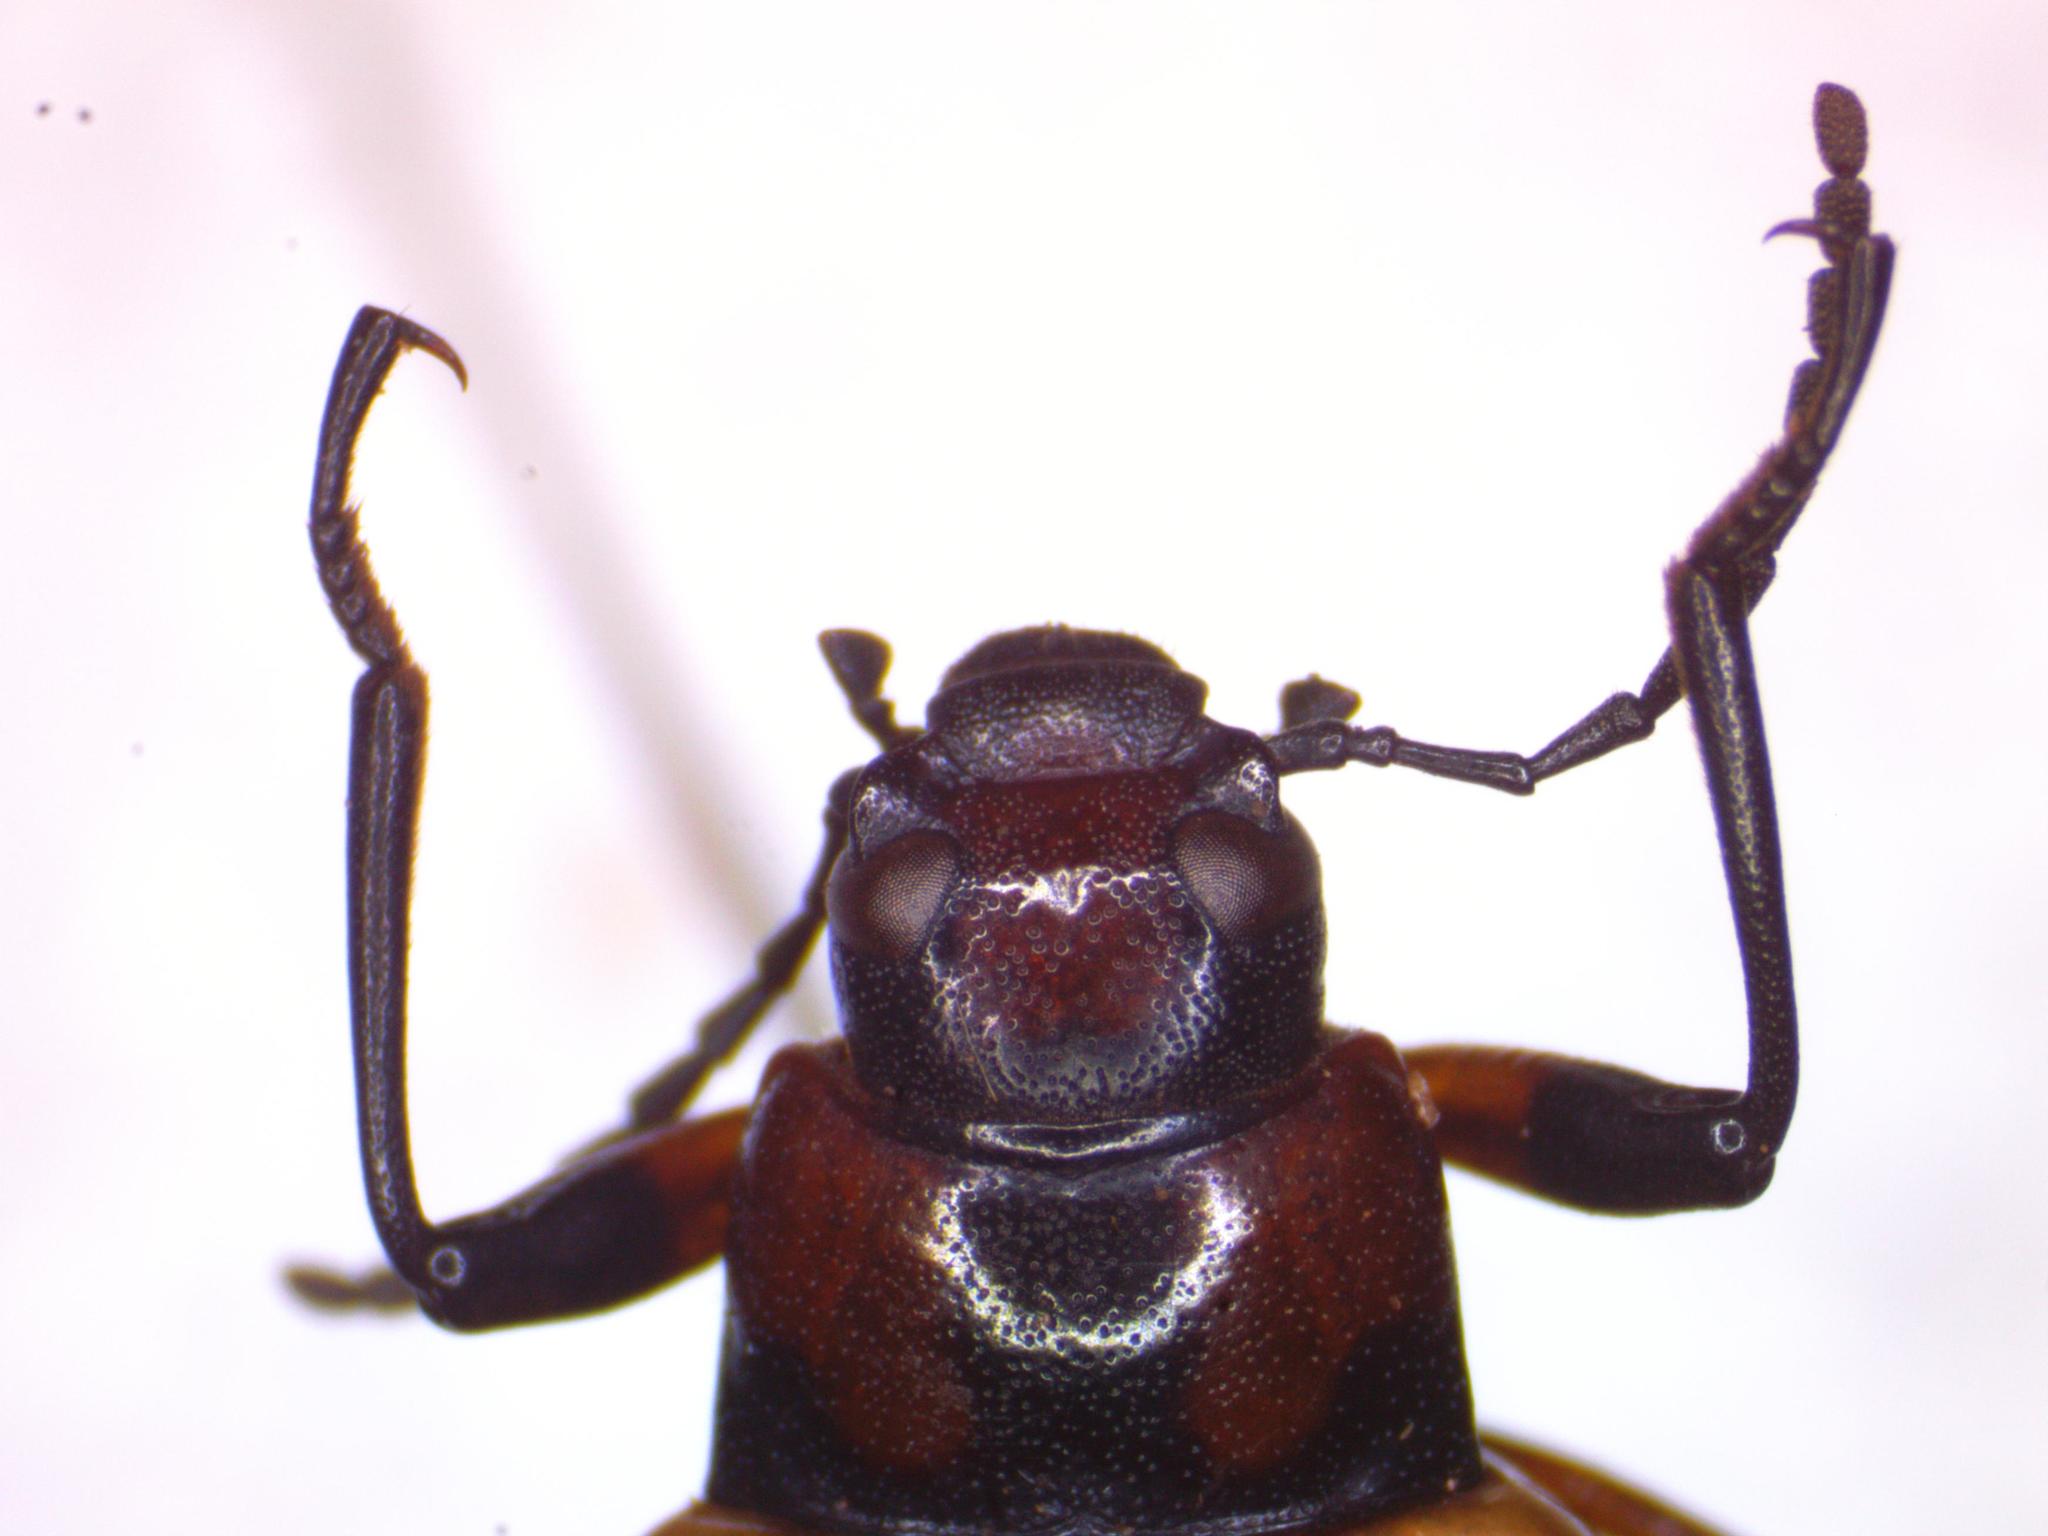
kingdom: Animalia
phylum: Arthropoda
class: Insecta
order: Coleoptera
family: Tenebrionidae
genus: Strongylium
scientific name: Strongylium maculicolle
